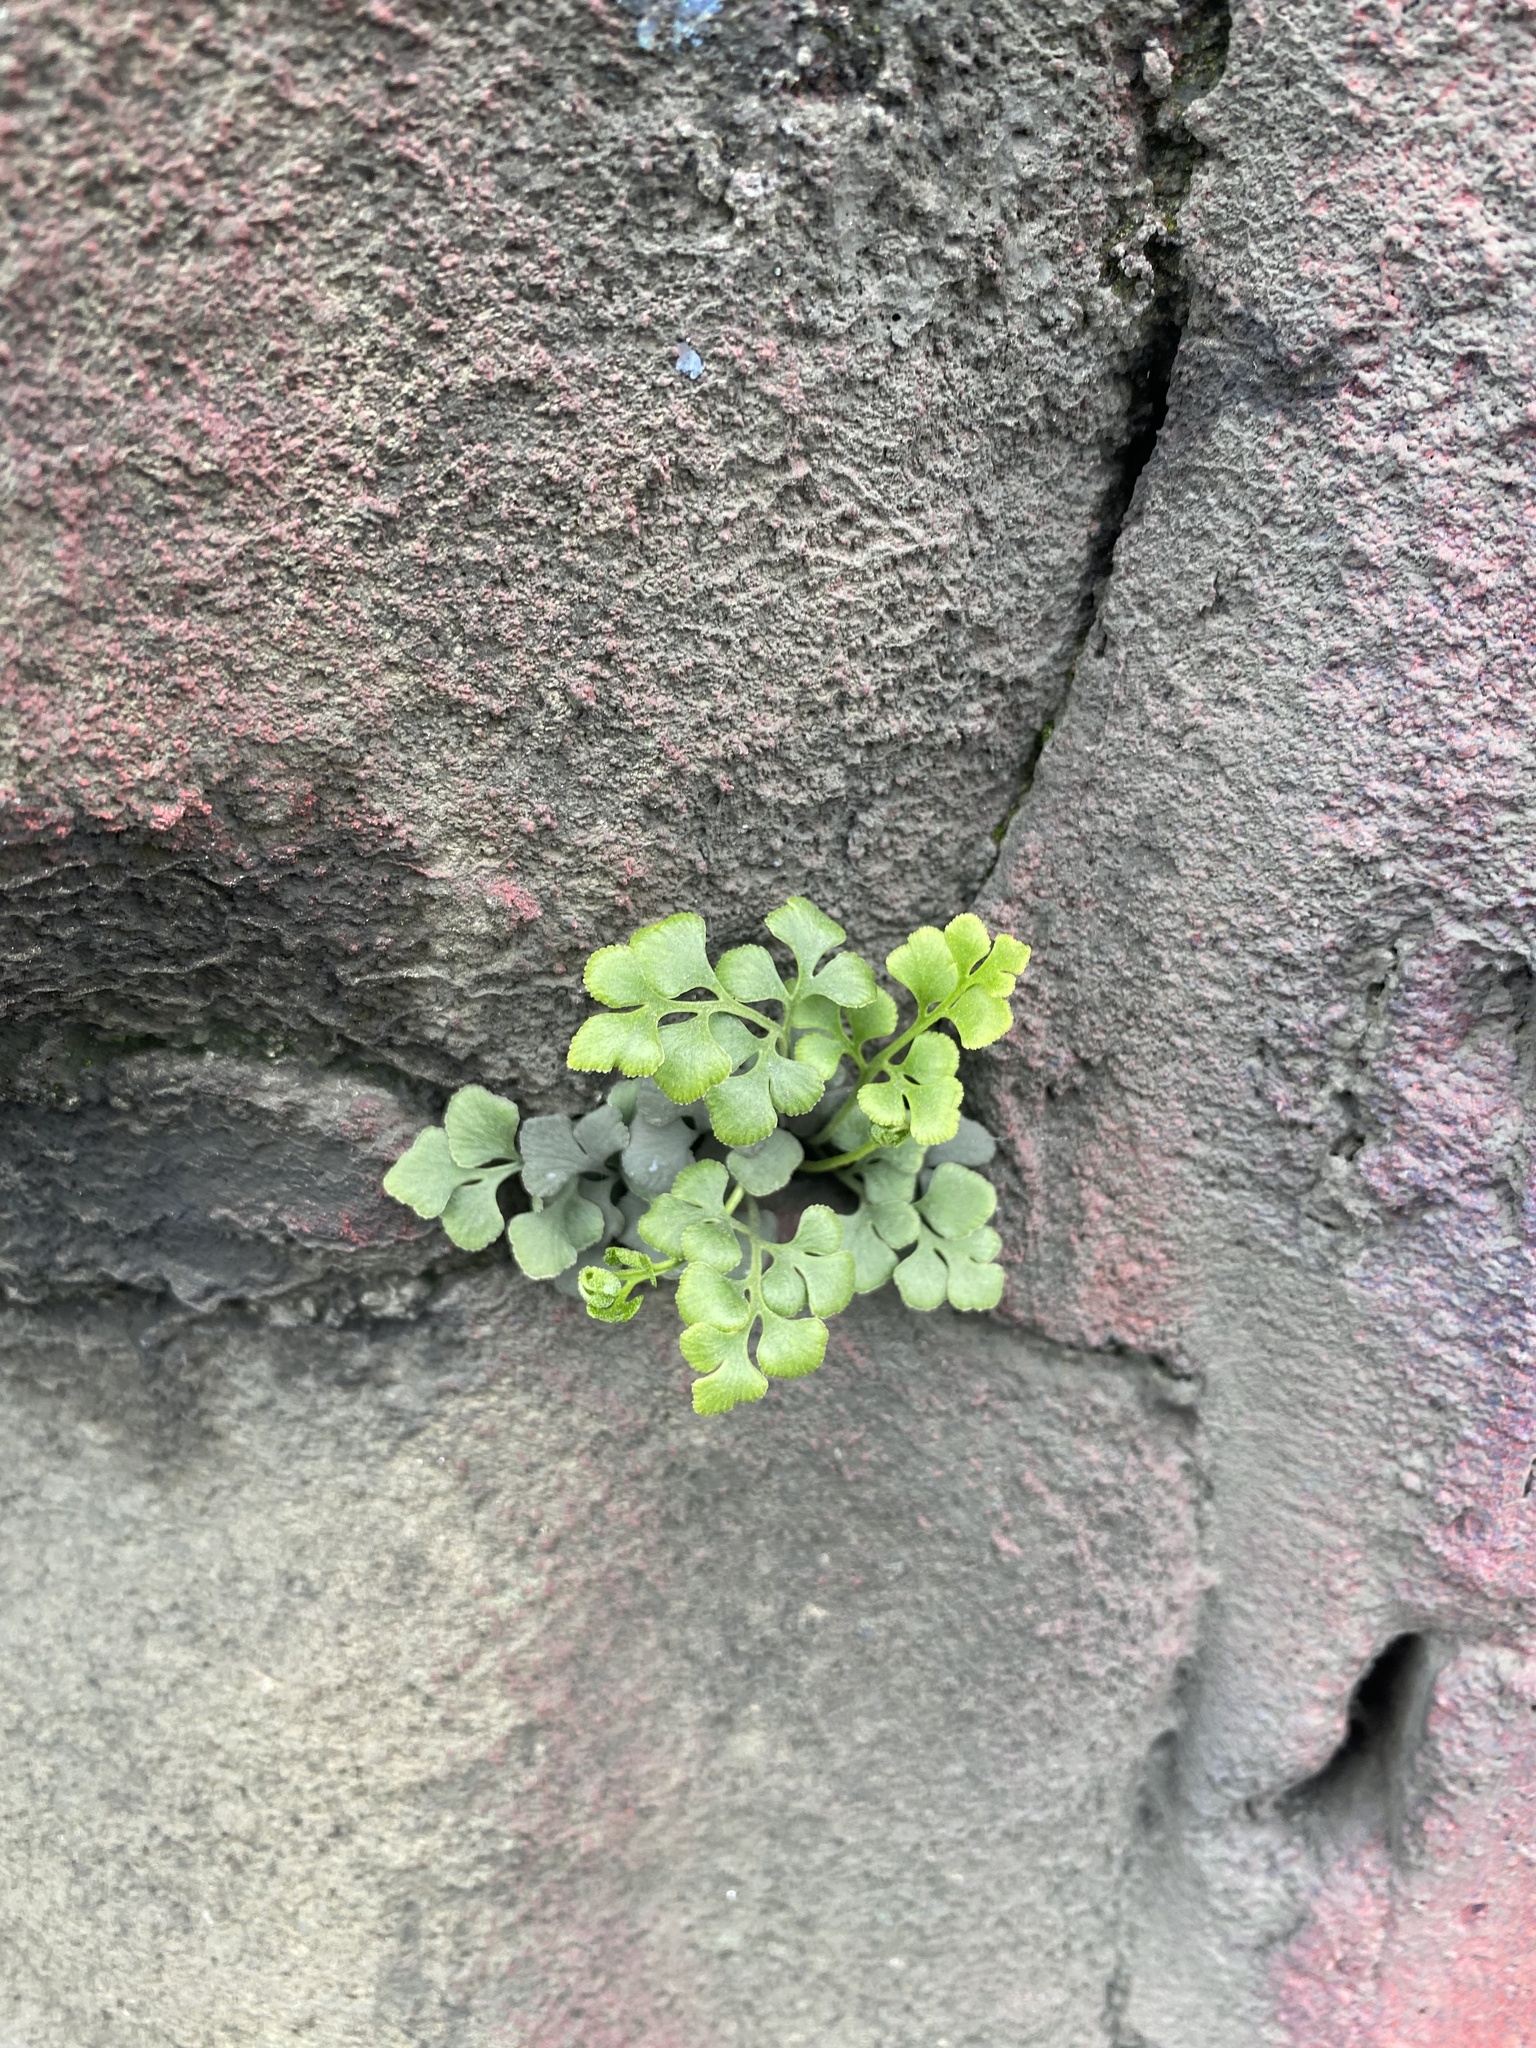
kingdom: Plantae
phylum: Tracheophyta
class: Polypodiopsida
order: Polypodiales
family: Aspleniaceae
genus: Asplenium
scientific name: Asplenium ruta-muraria
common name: Wall-rue
